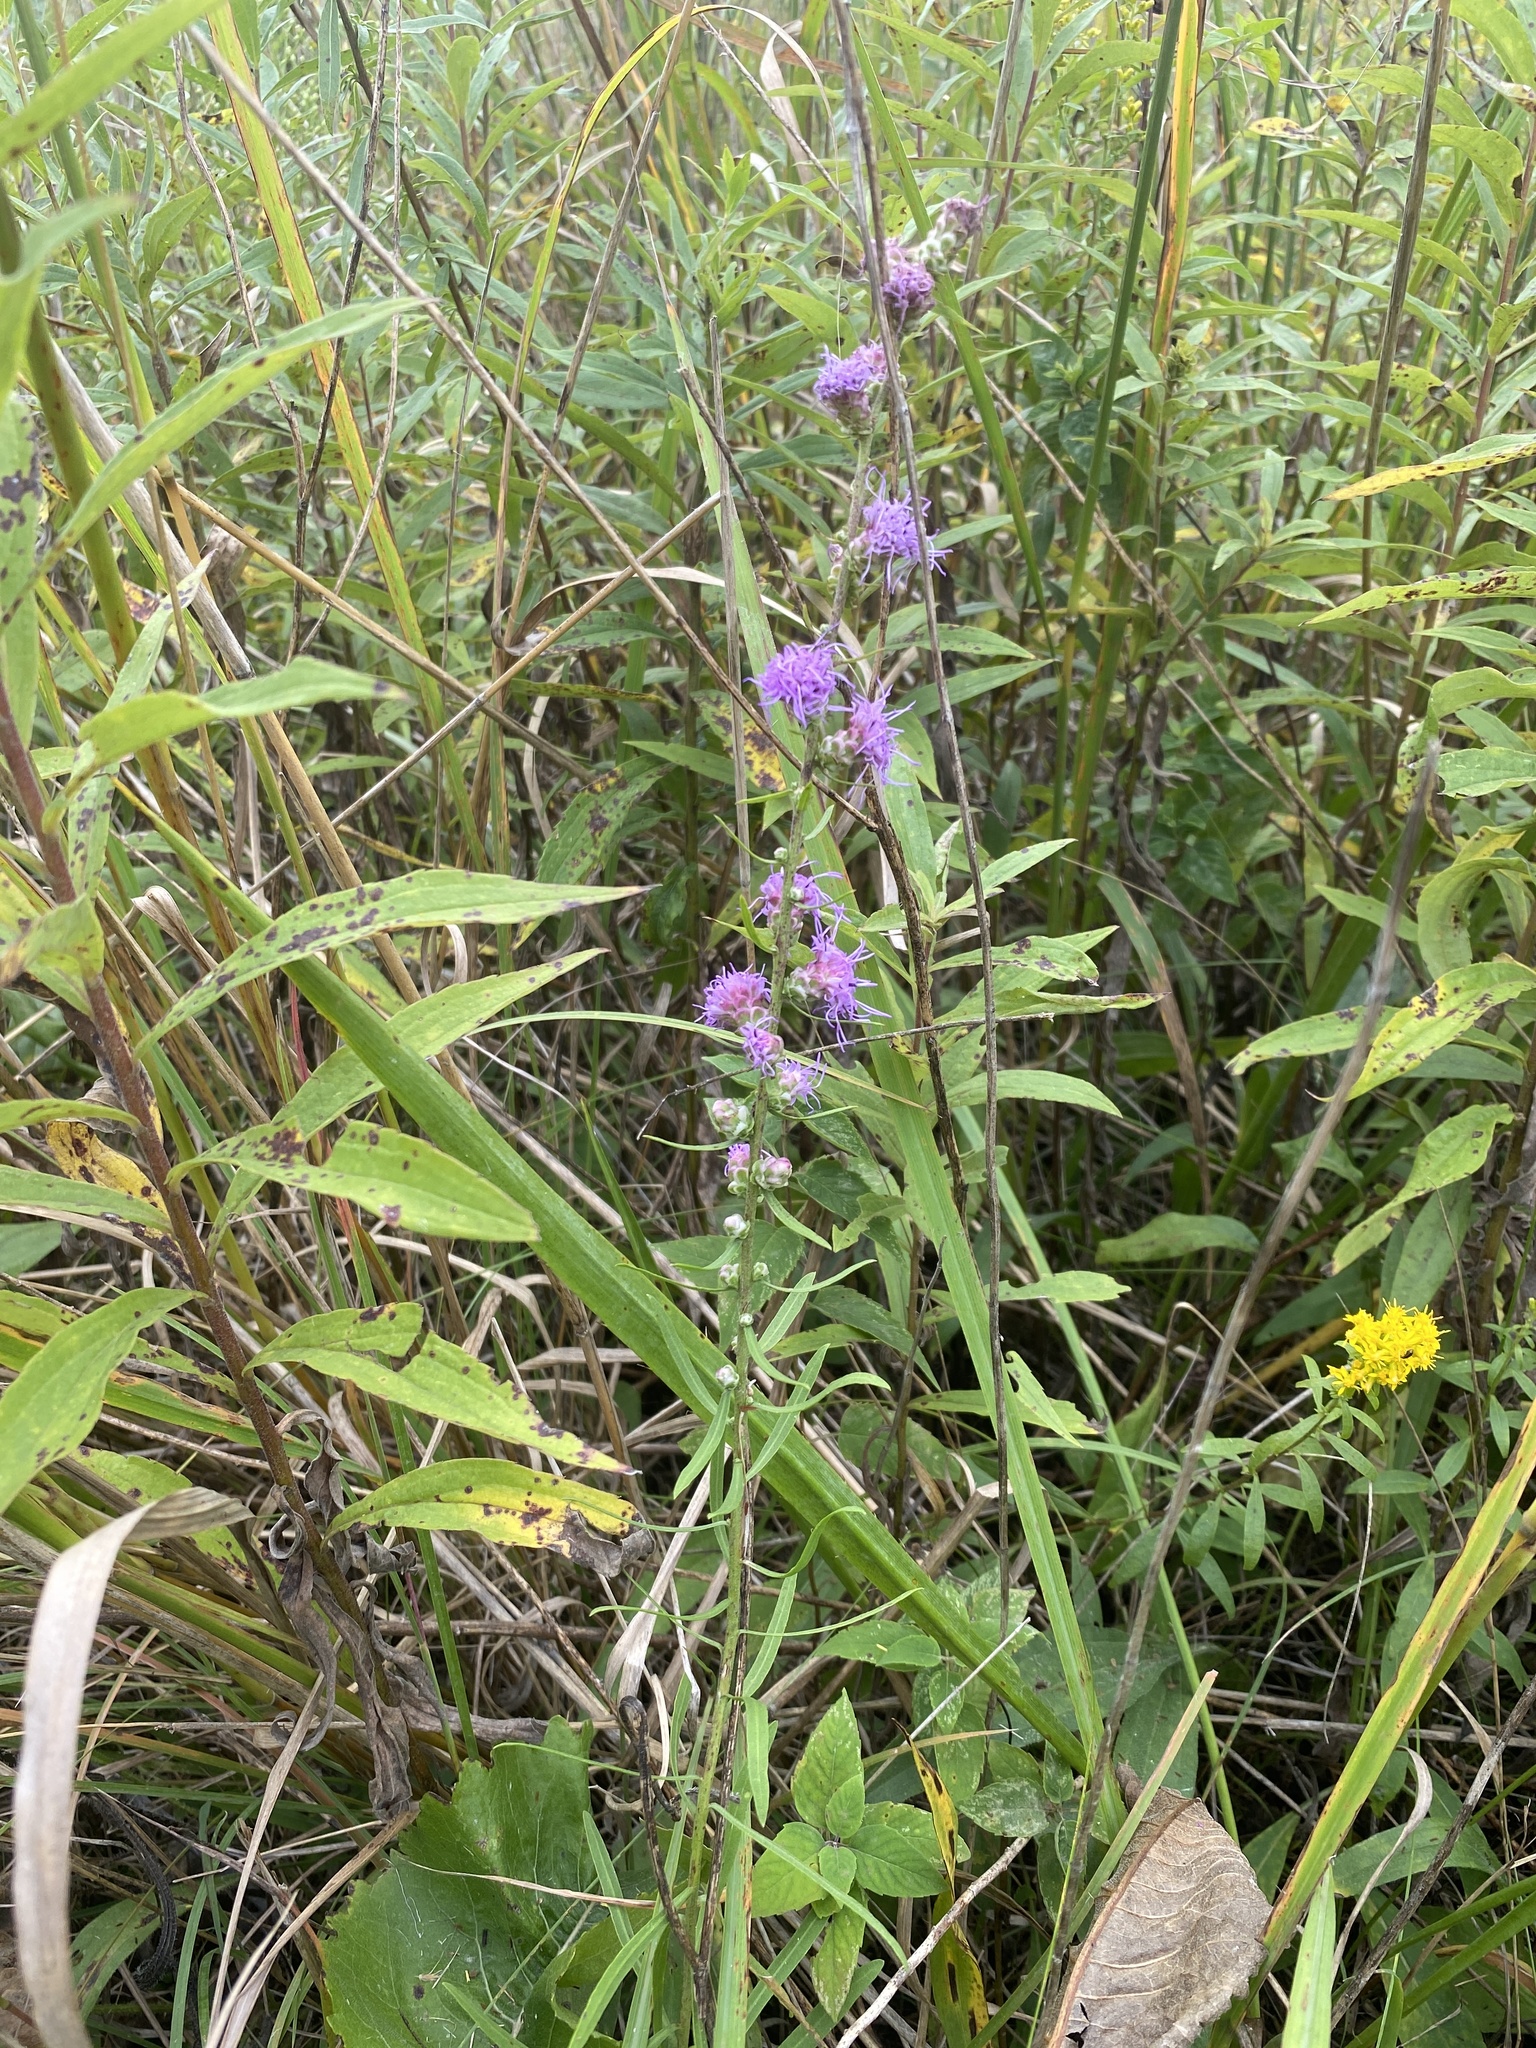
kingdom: Plantae
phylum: Tracheophyta
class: Magnoliopsida
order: Asterales
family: Asteraceae
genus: Liatris
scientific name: Liatris aspera
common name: Lacerate blazing-star
